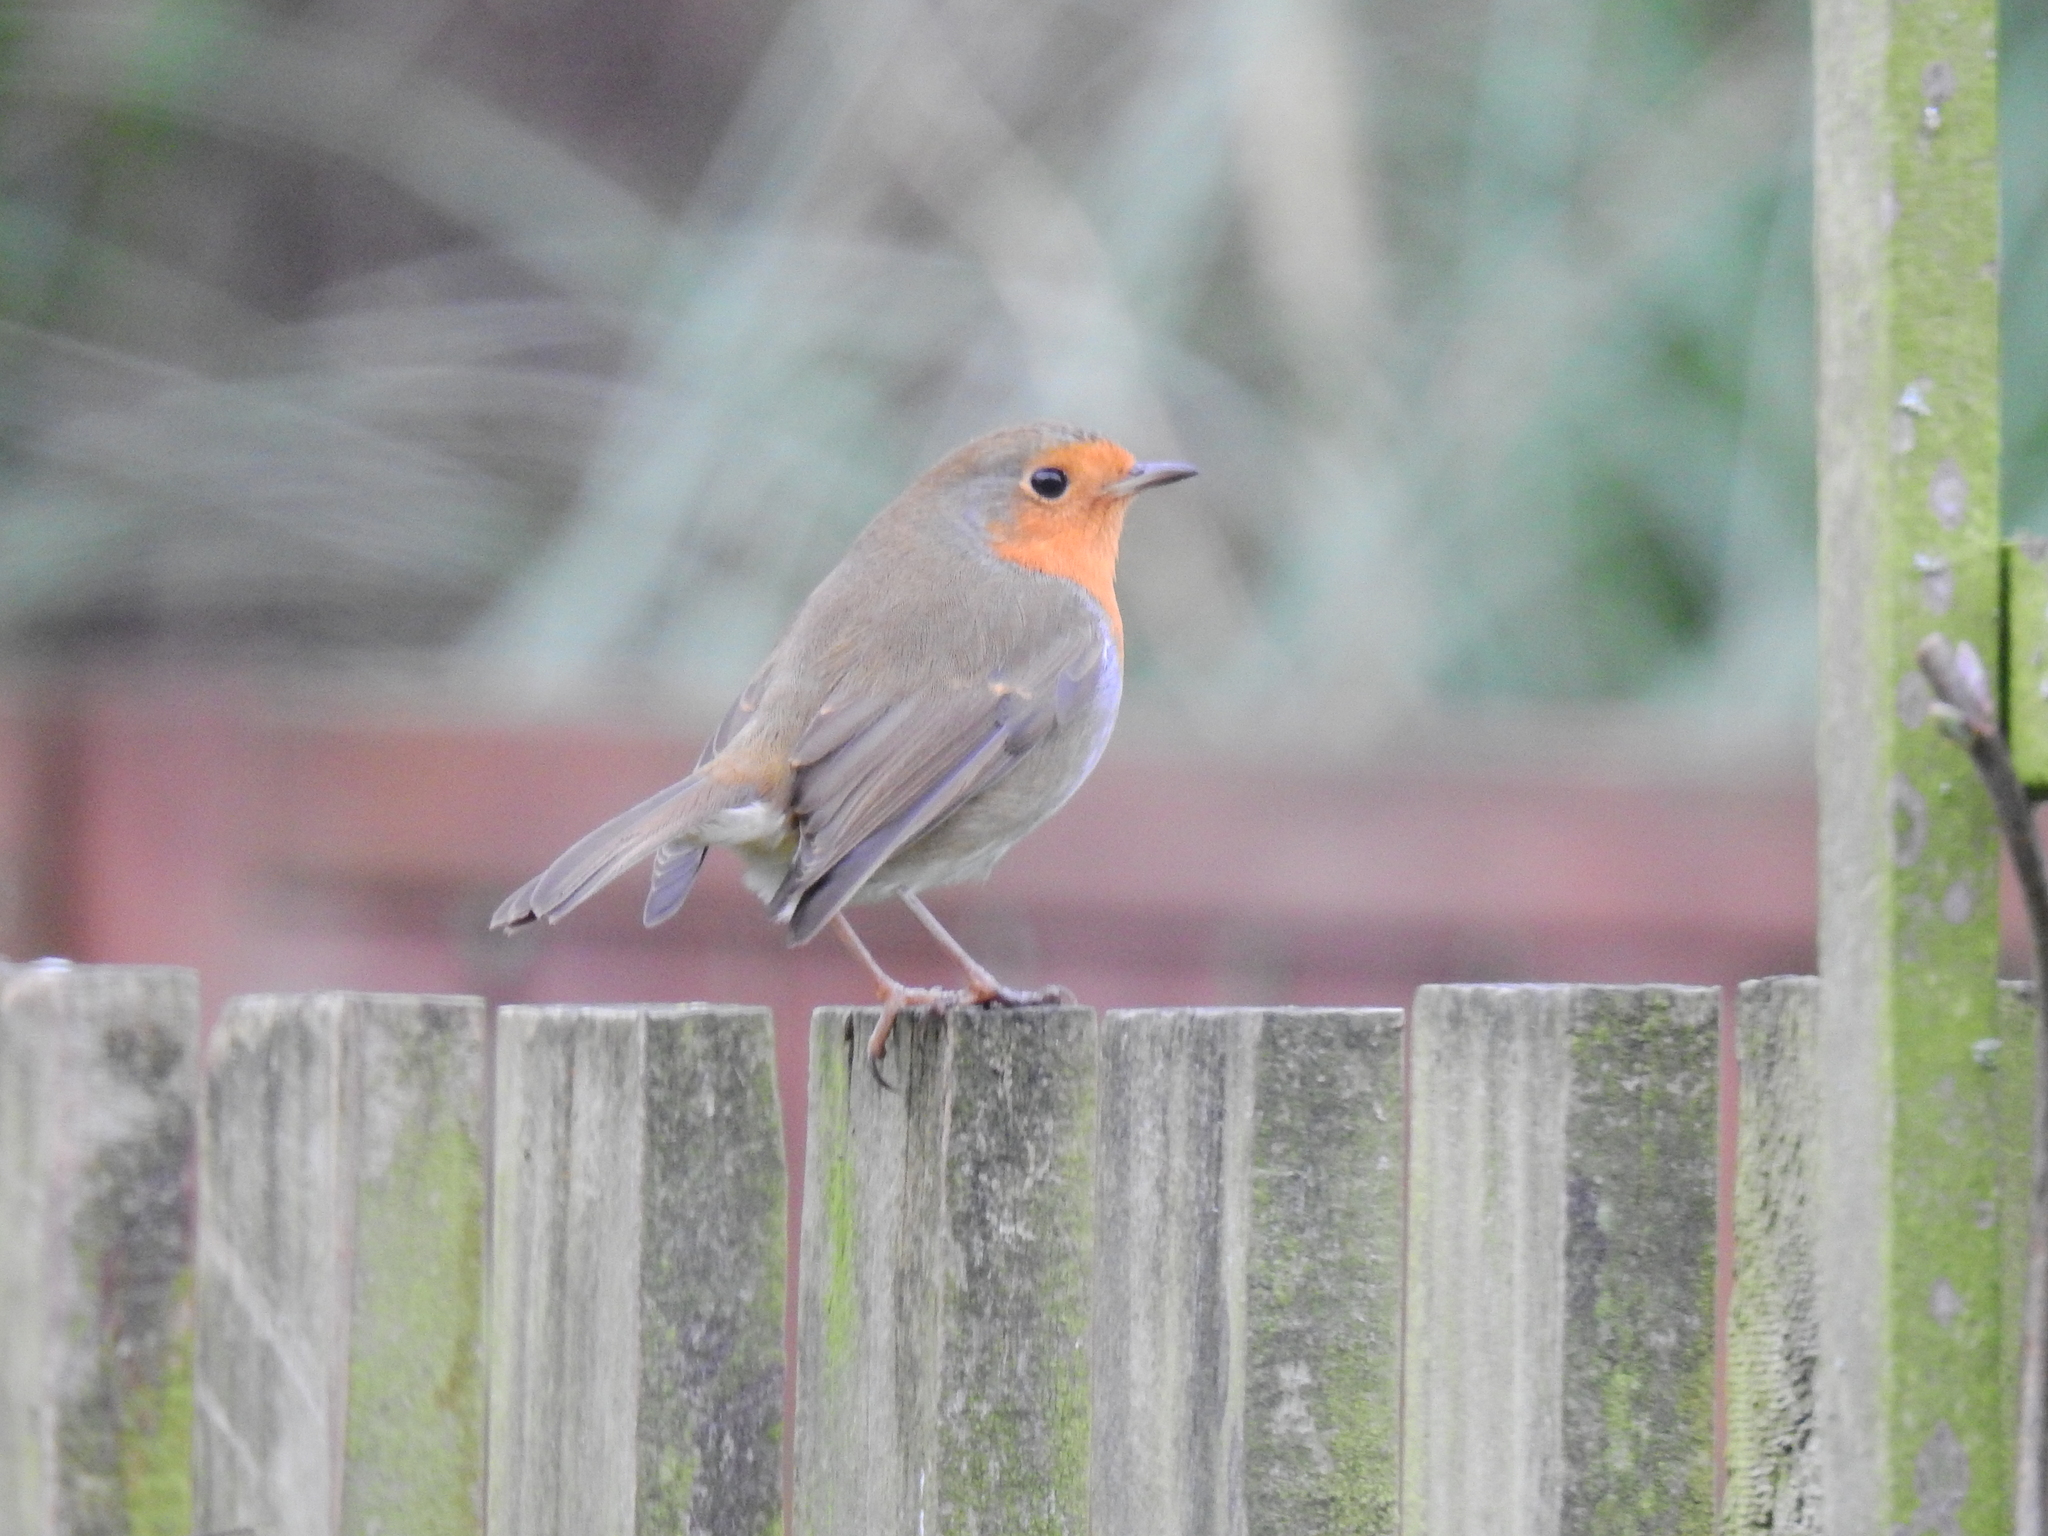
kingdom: Animalia
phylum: Chordata
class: Aves
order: Passeriformes
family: Muscicapidae
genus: Erithacus
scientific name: Erithacus rubecula
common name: European robin
